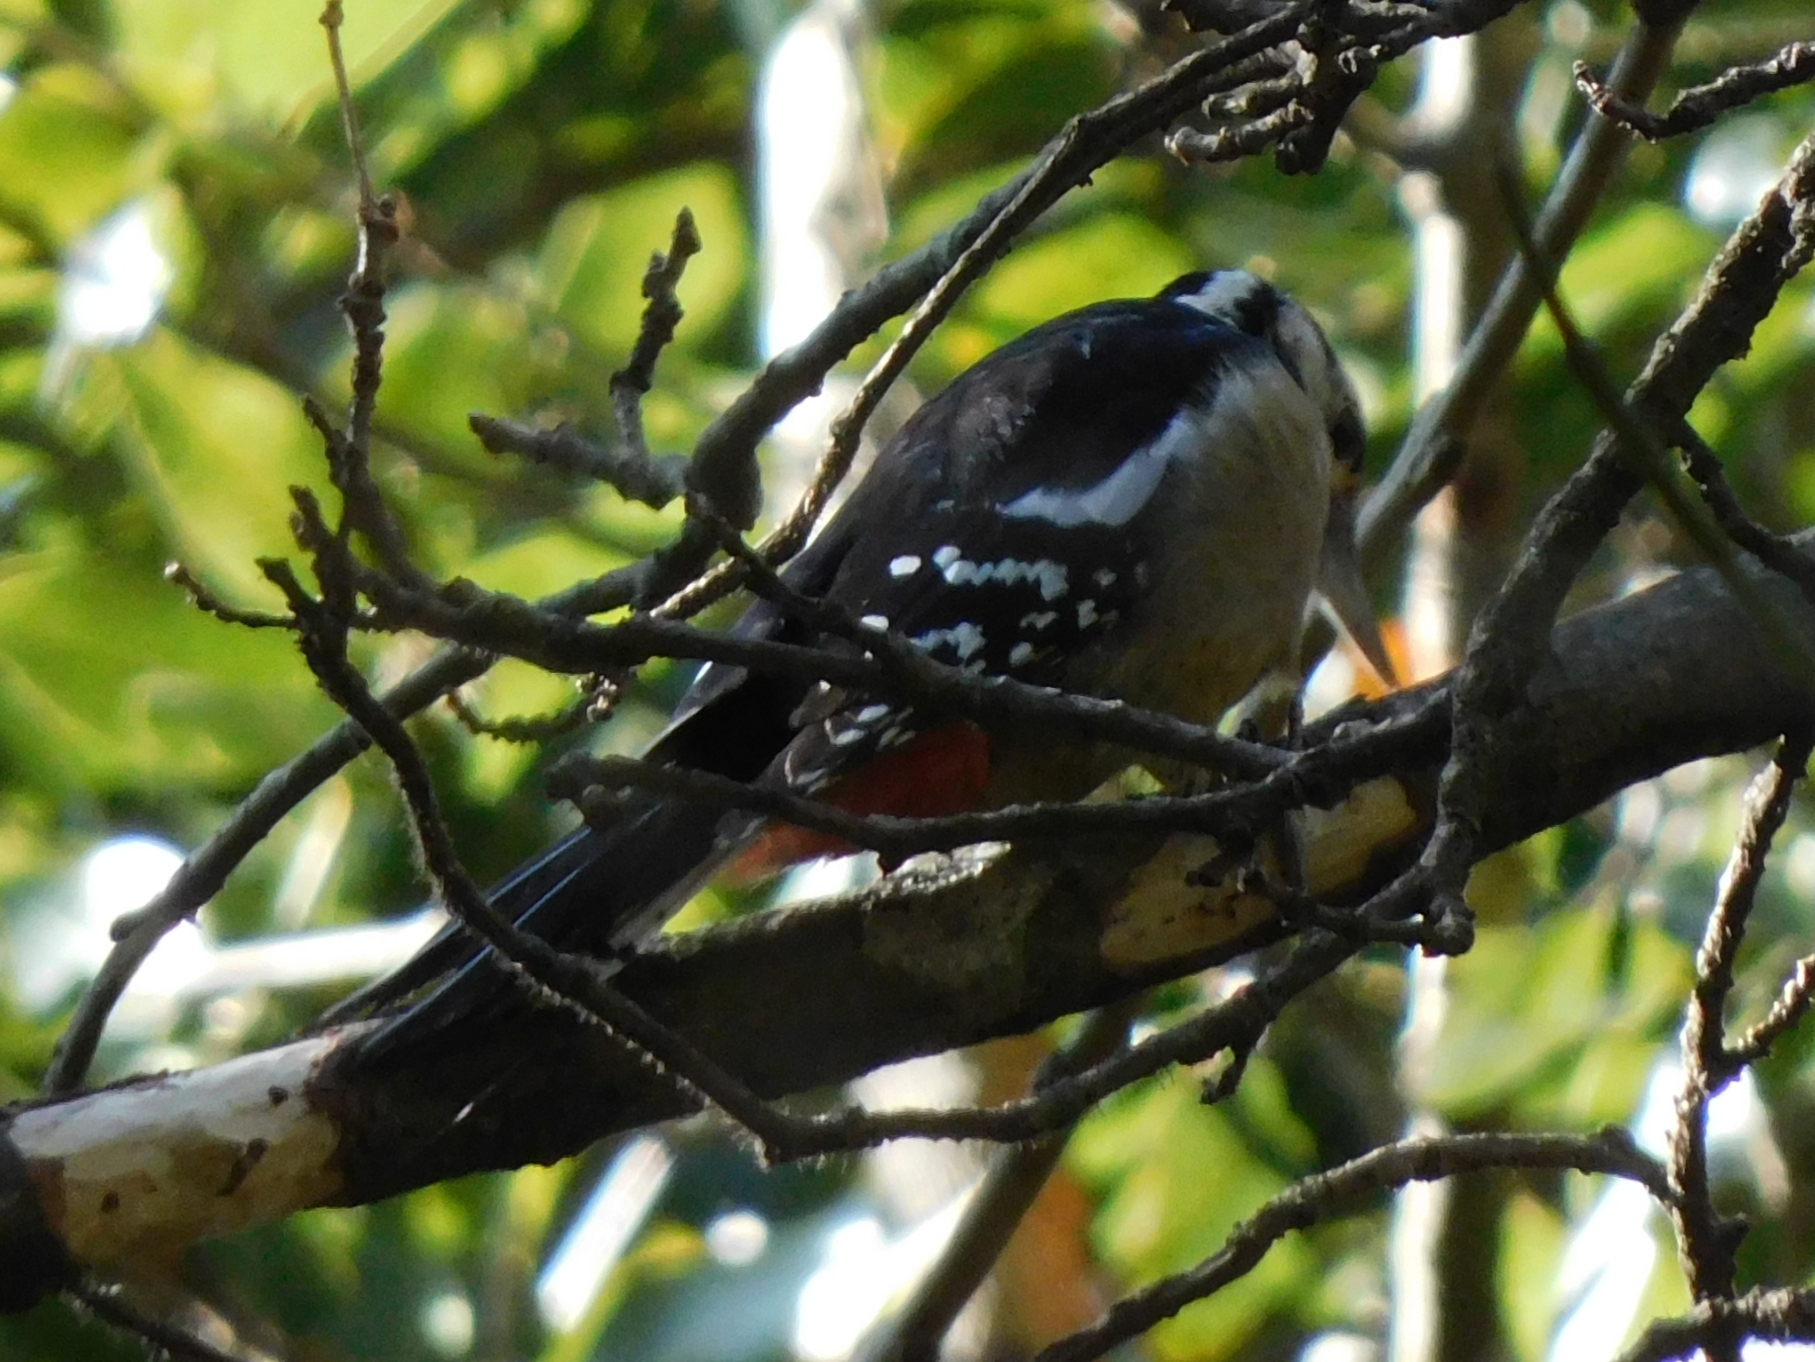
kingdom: Animalia
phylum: Chordata
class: Aves
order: Piciformes
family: Picidae
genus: Dendrocopos
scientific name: Dendrocopos himalayensis
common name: Himalayan woodpecker
